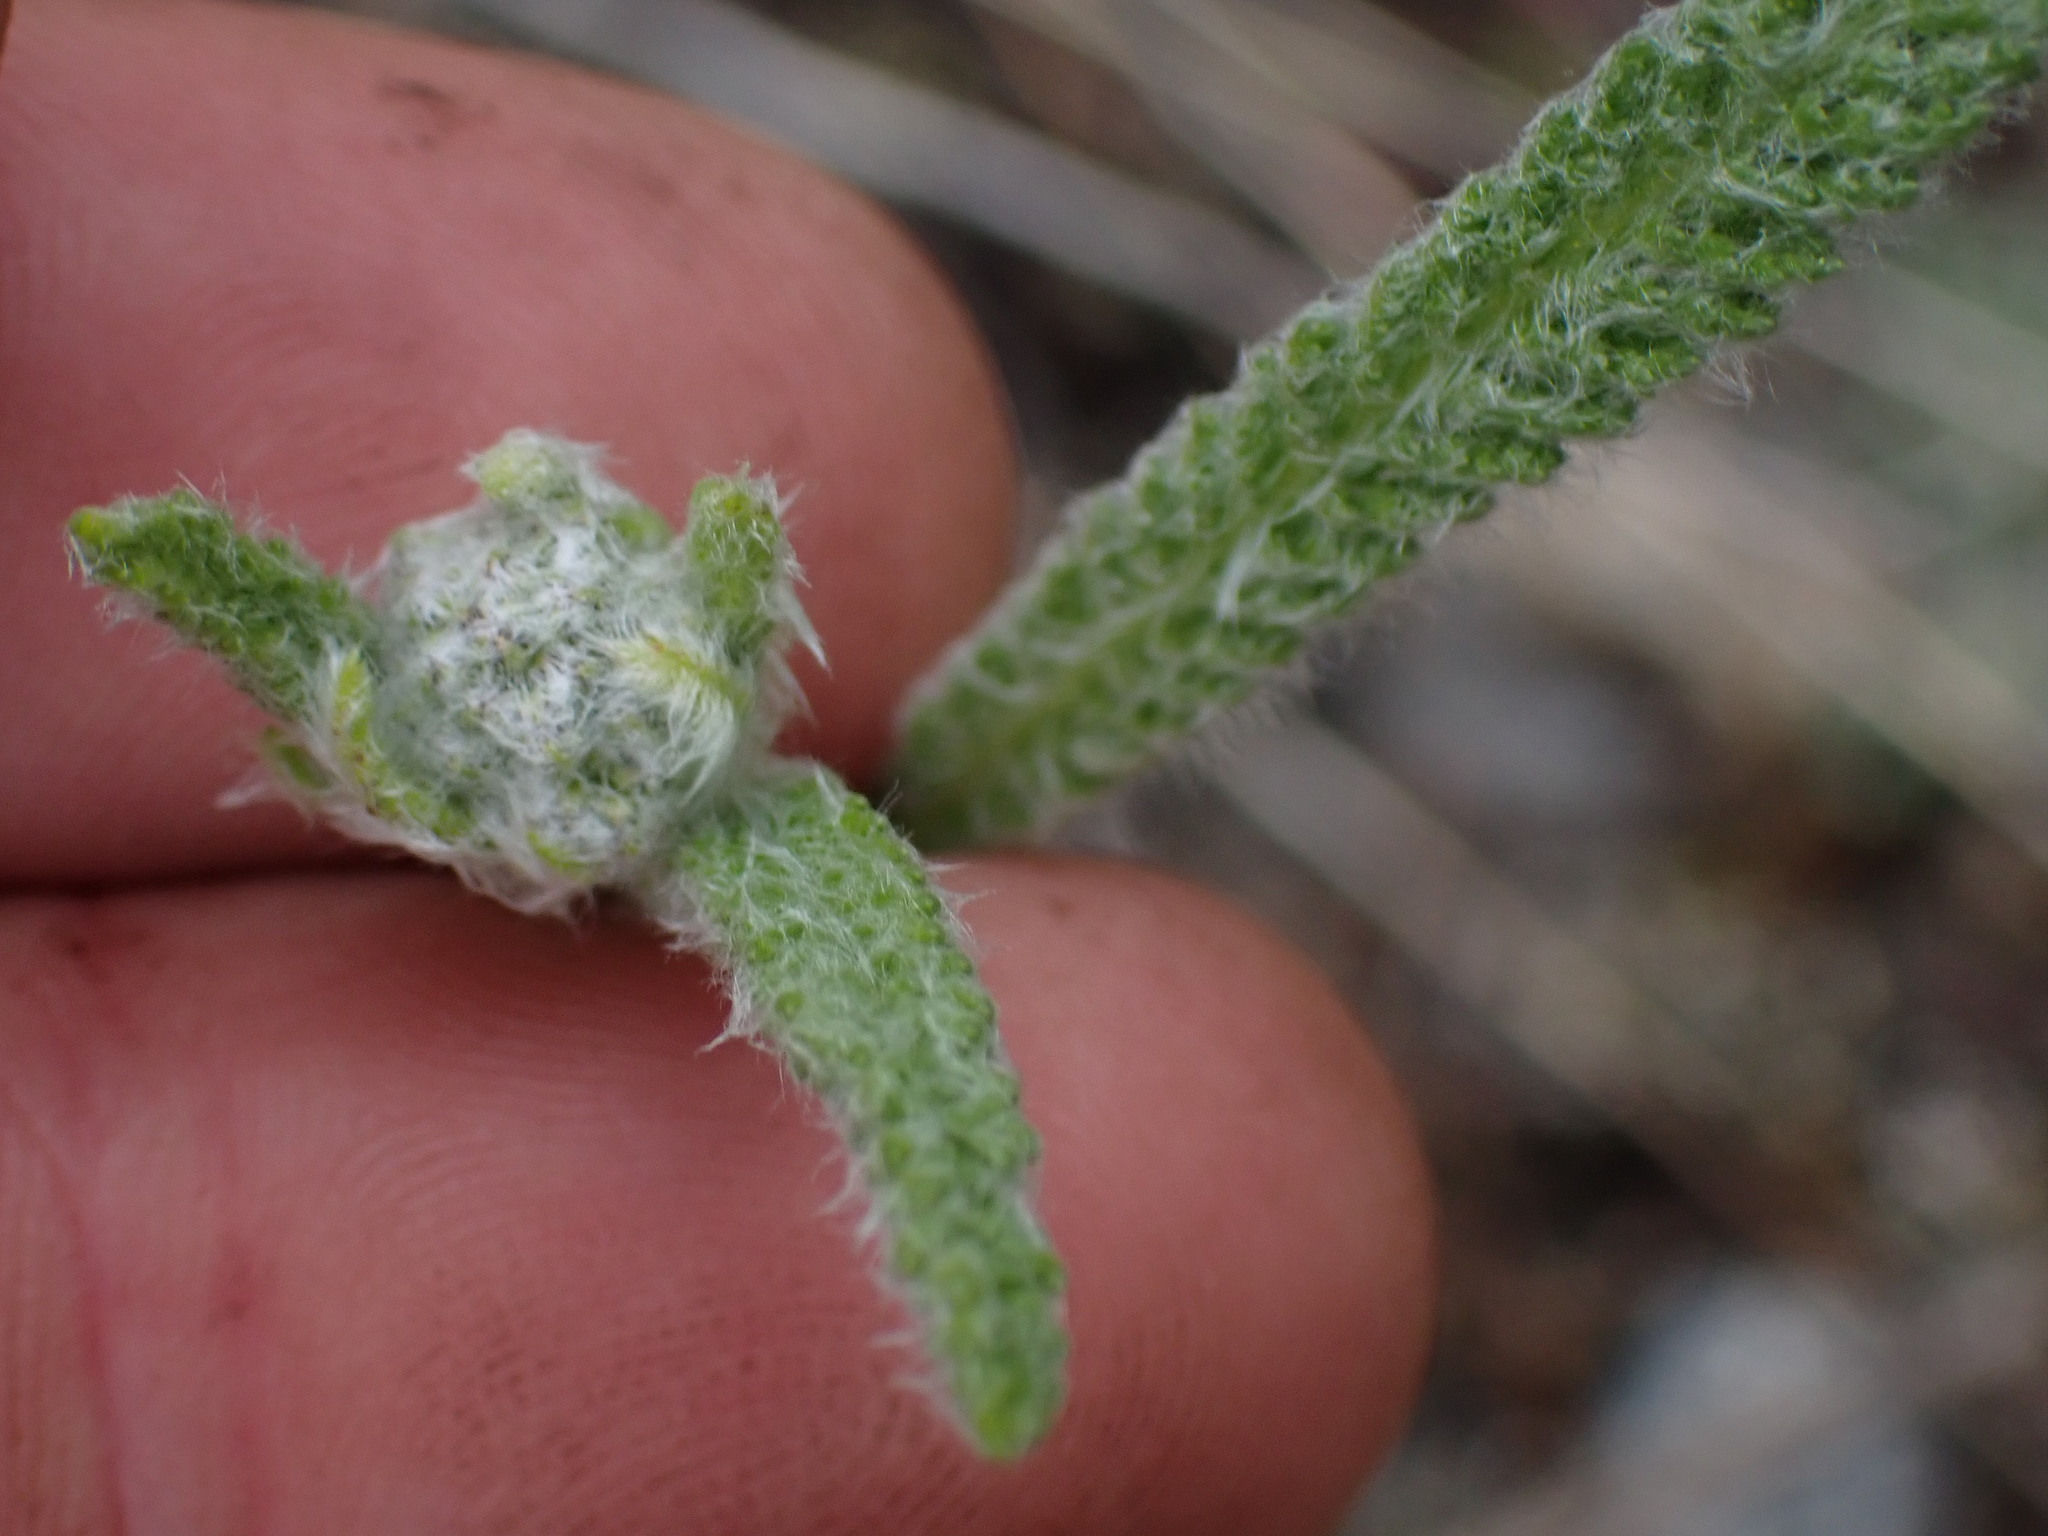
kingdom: Plantae
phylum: Tracheophyta
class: Magnoliopsida
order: Asterales
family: Asteraceae
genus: Achillea
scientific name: Achillea millefolium
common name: Yarrow
